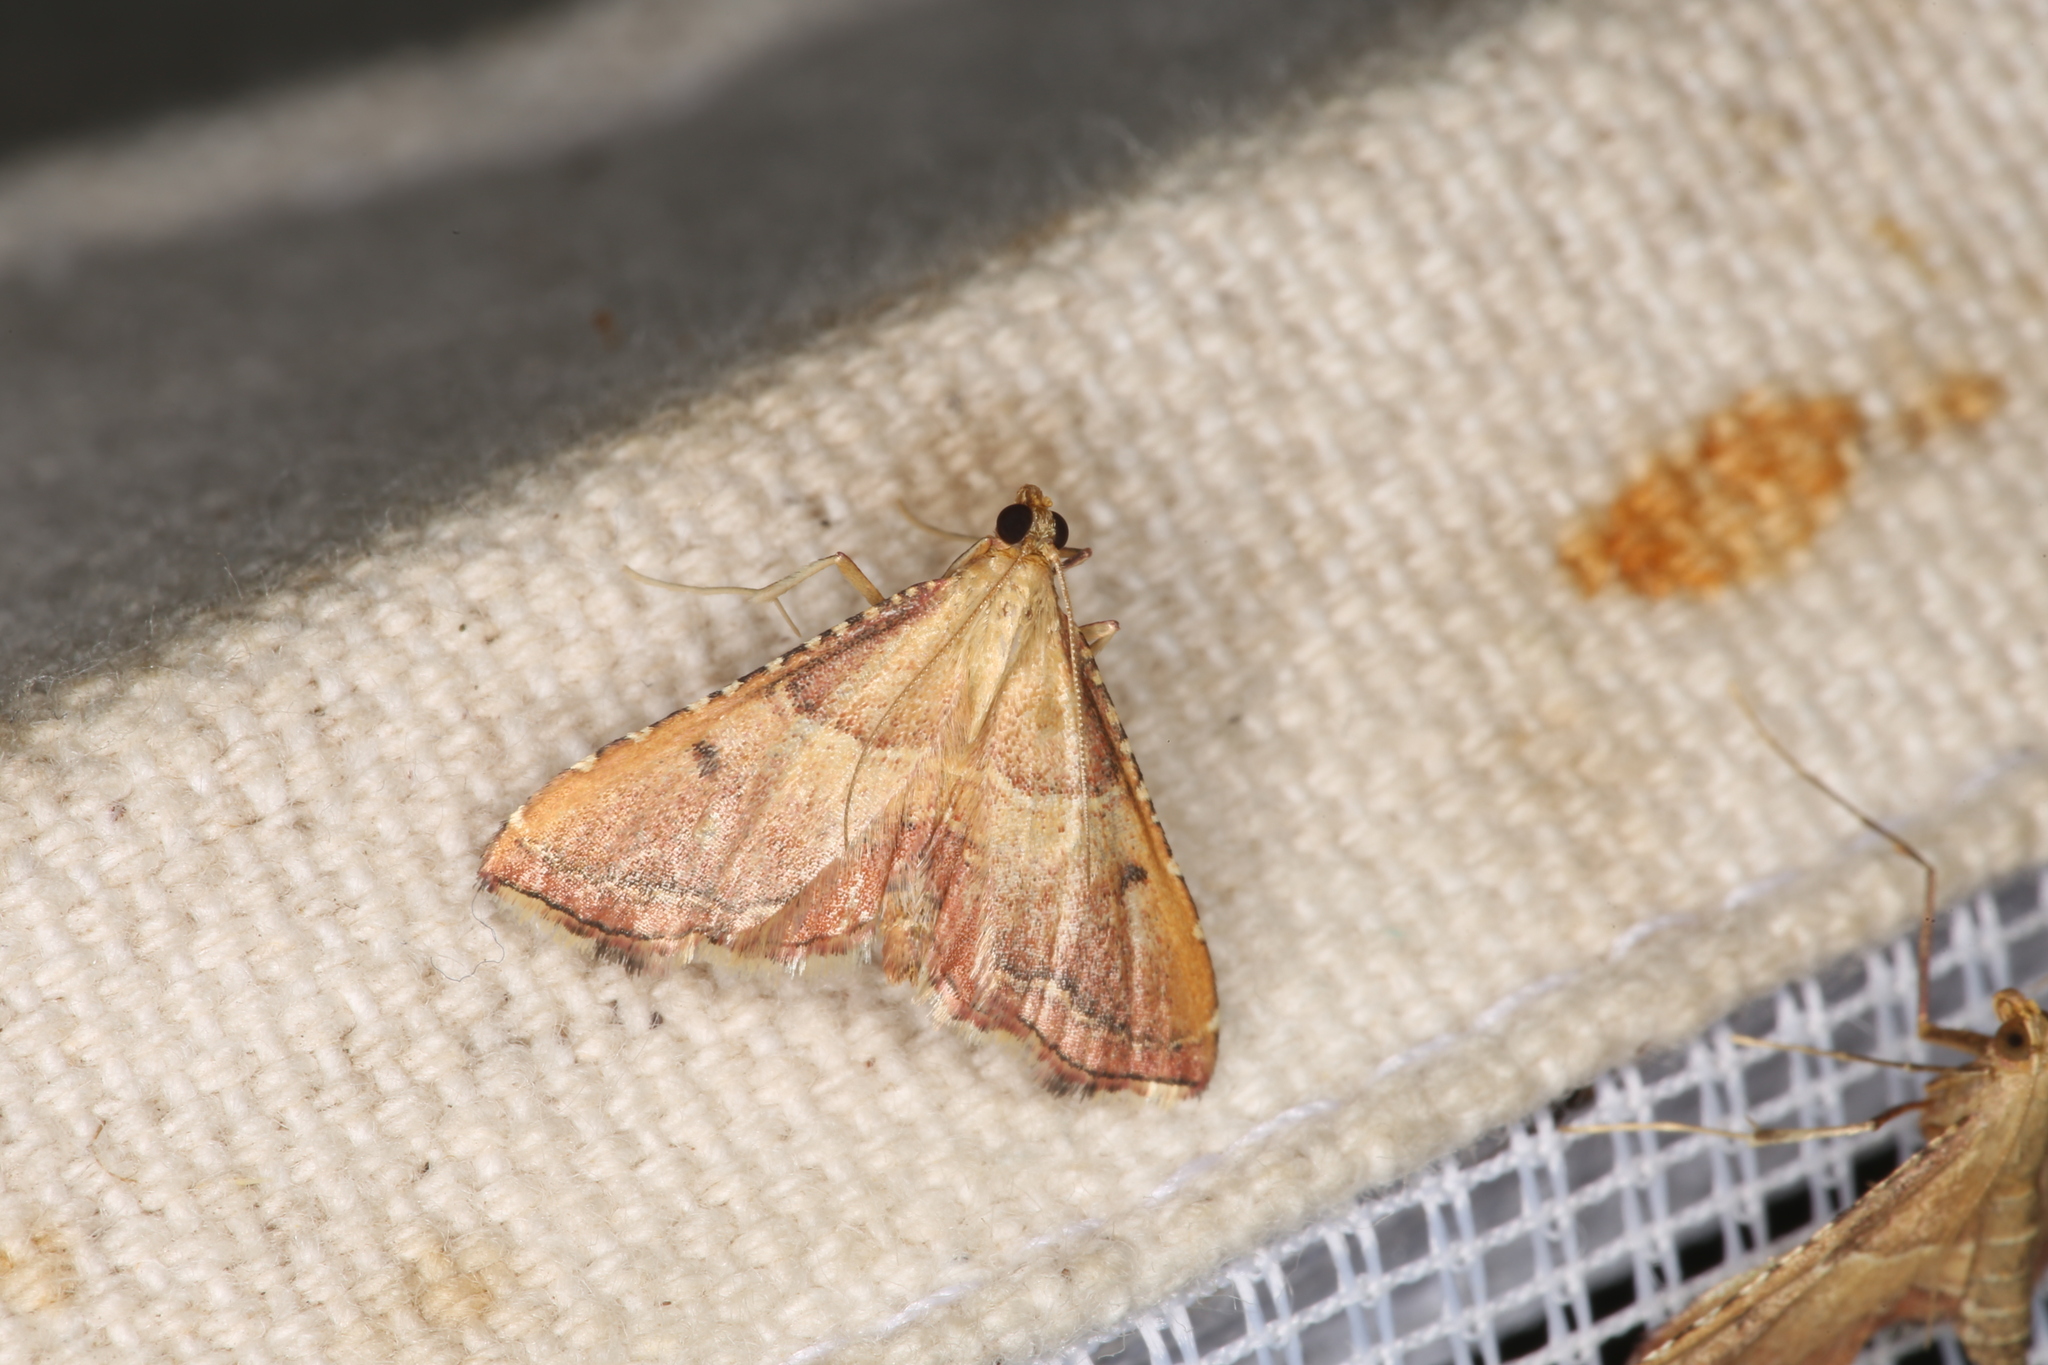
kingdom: Animalia
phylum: Arthropoda
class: Insecta
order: Lepidoptera
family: Pyralidae
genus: Endotricha
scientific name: Endotricha flammealis
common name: Rosy tabby
